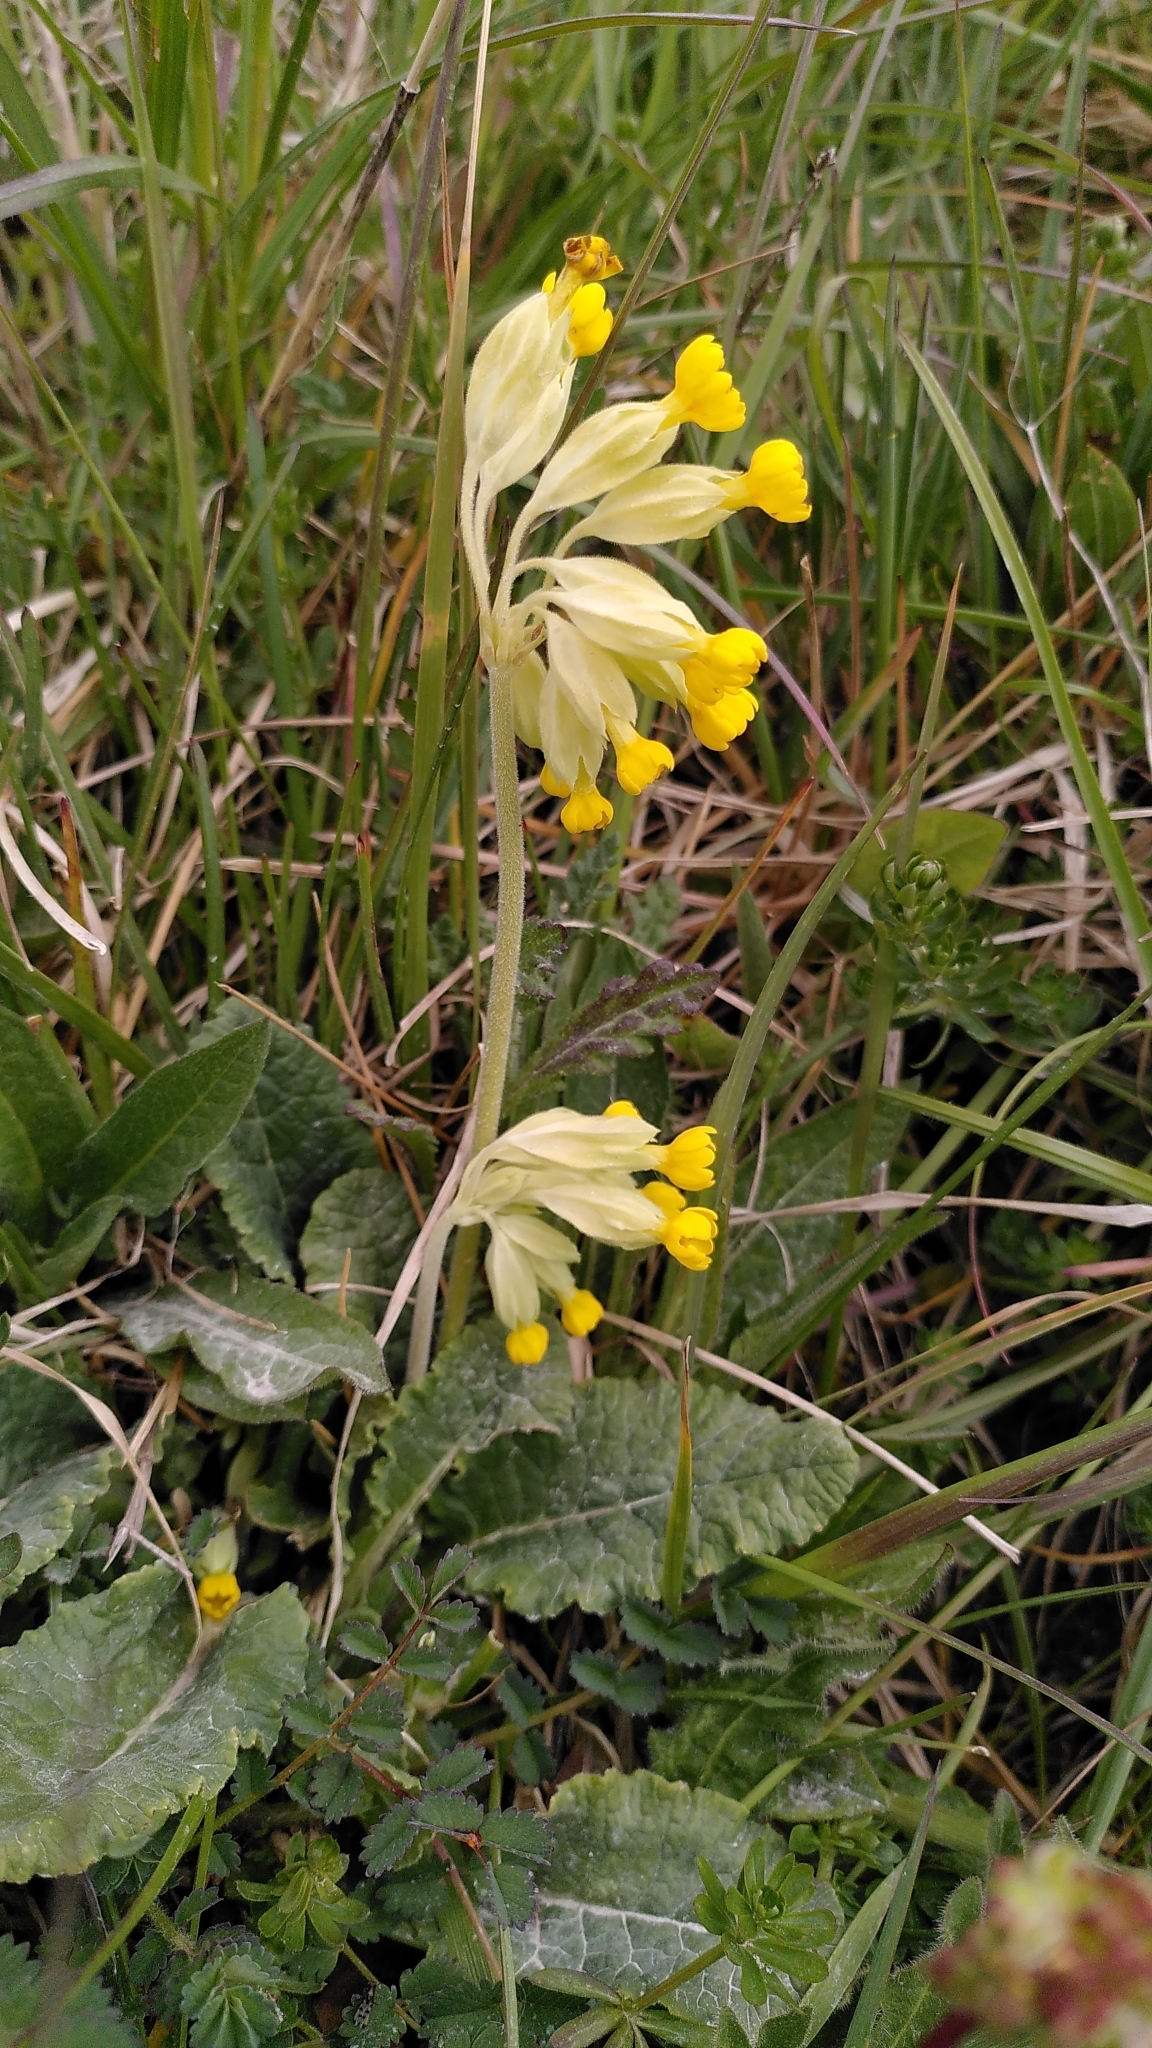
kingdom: Plantae
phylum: Tracheophyta
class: Magnoliopsida
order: Ericales
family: Primulaceae
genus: Primula
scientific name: Primula veris
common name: Cowslip
